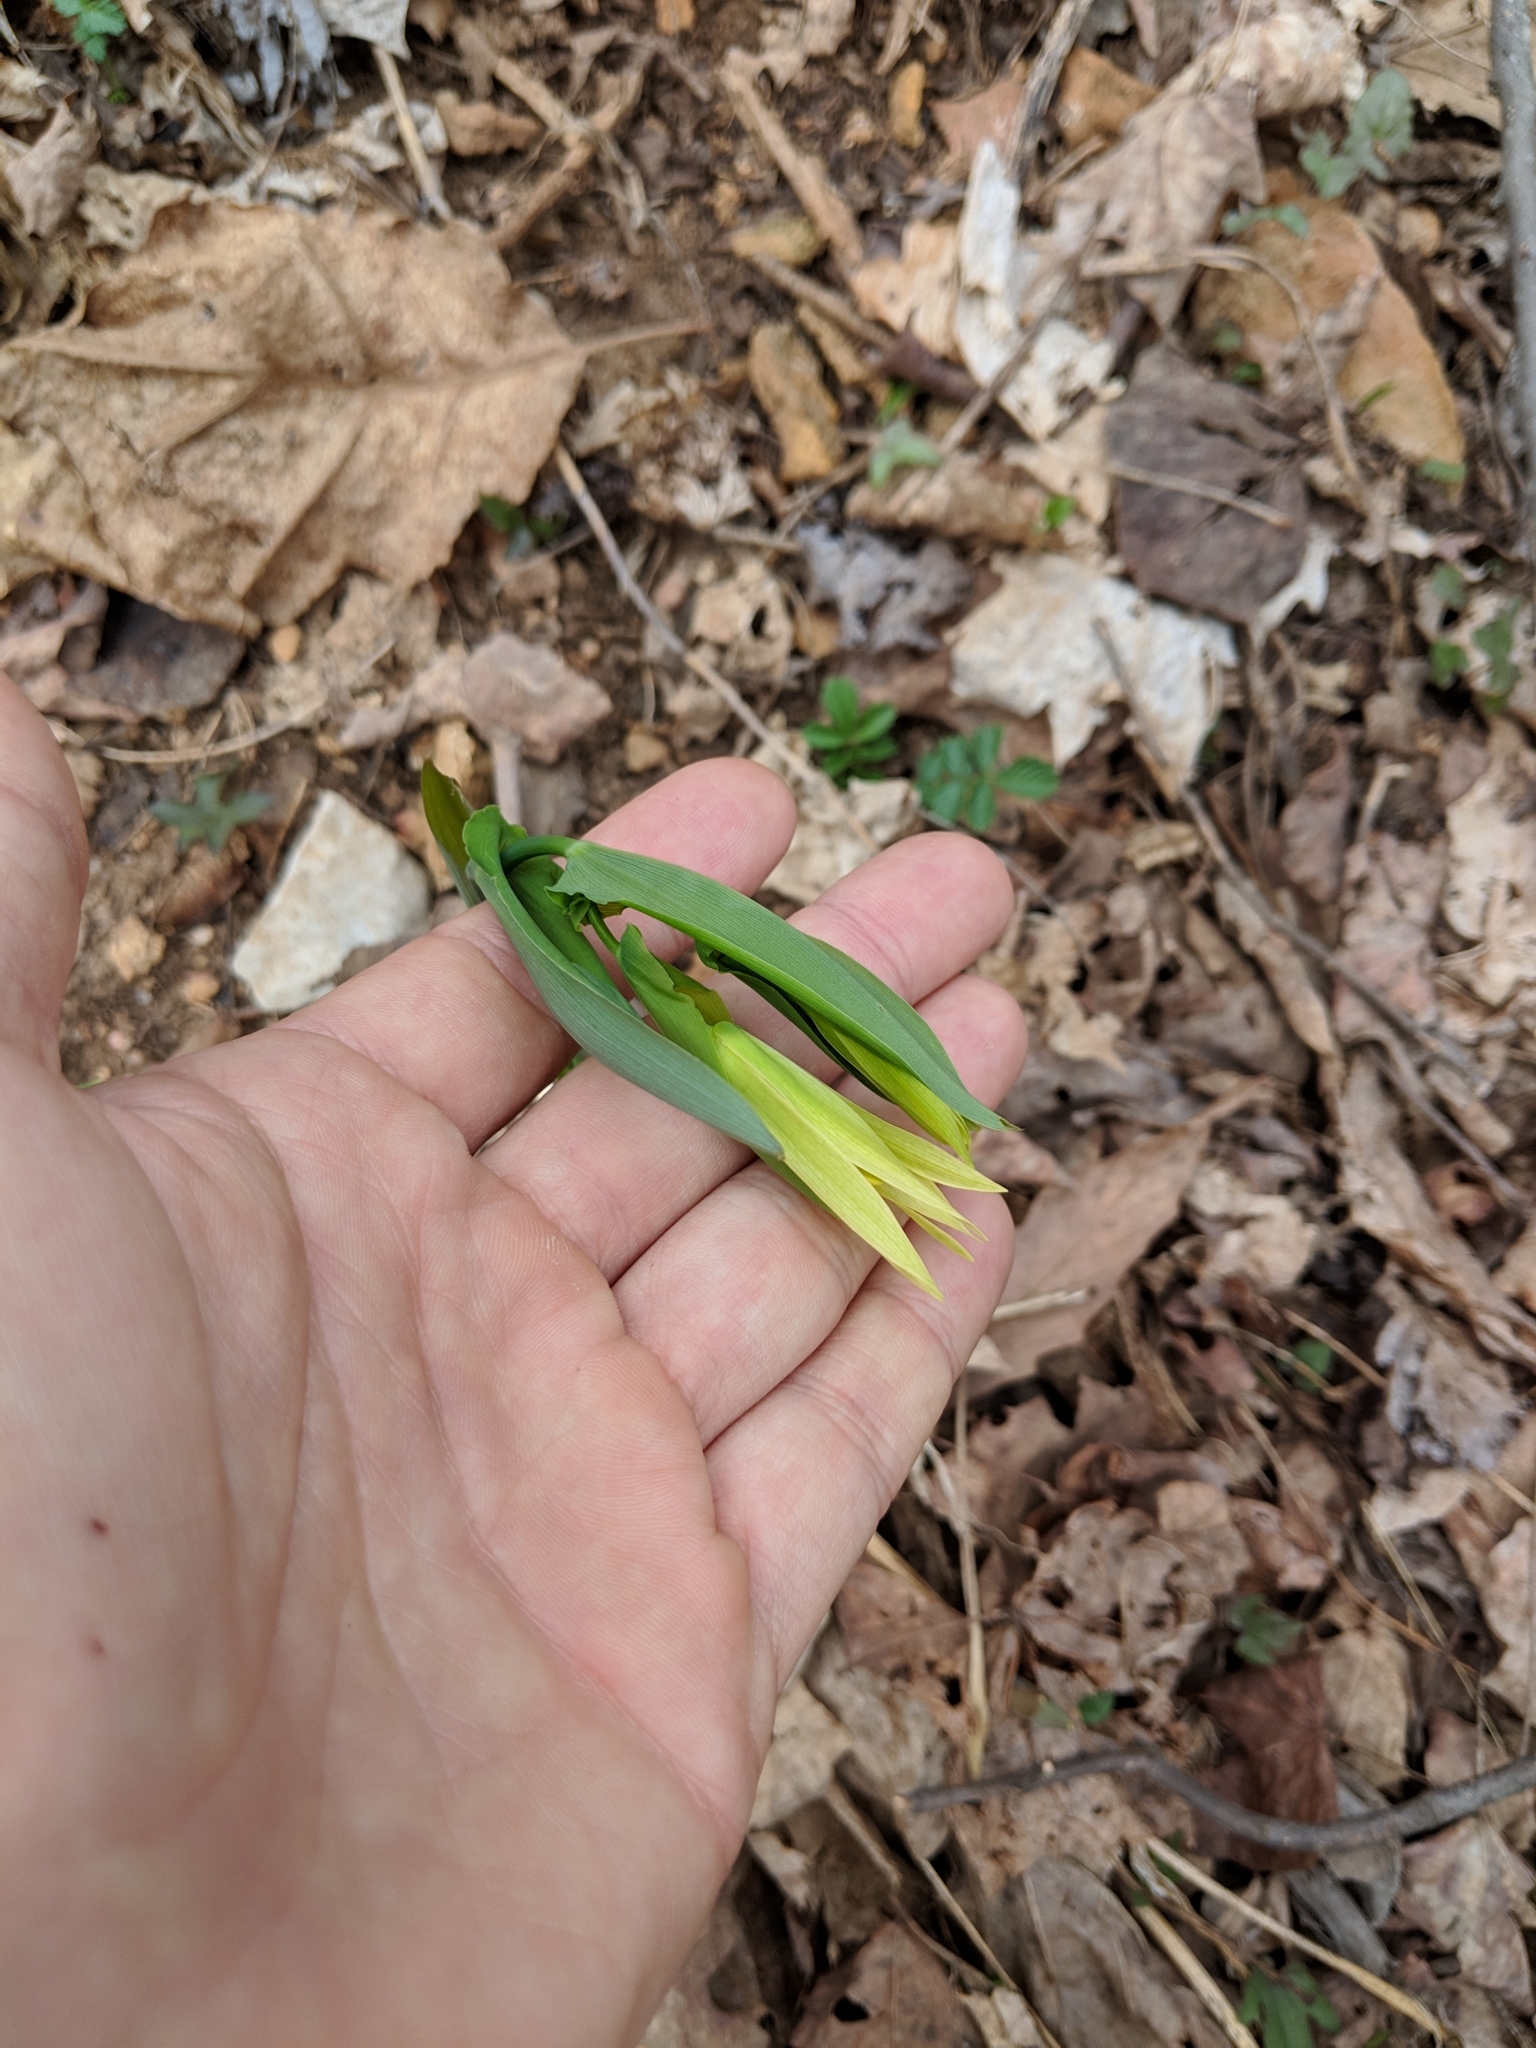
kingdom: Plantae
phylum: Tracheophyta
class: Liliopsida
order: Liliales
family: Colchicaceae
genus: Uvularia
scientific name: Uvularia grandiflora
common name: Bellwort
